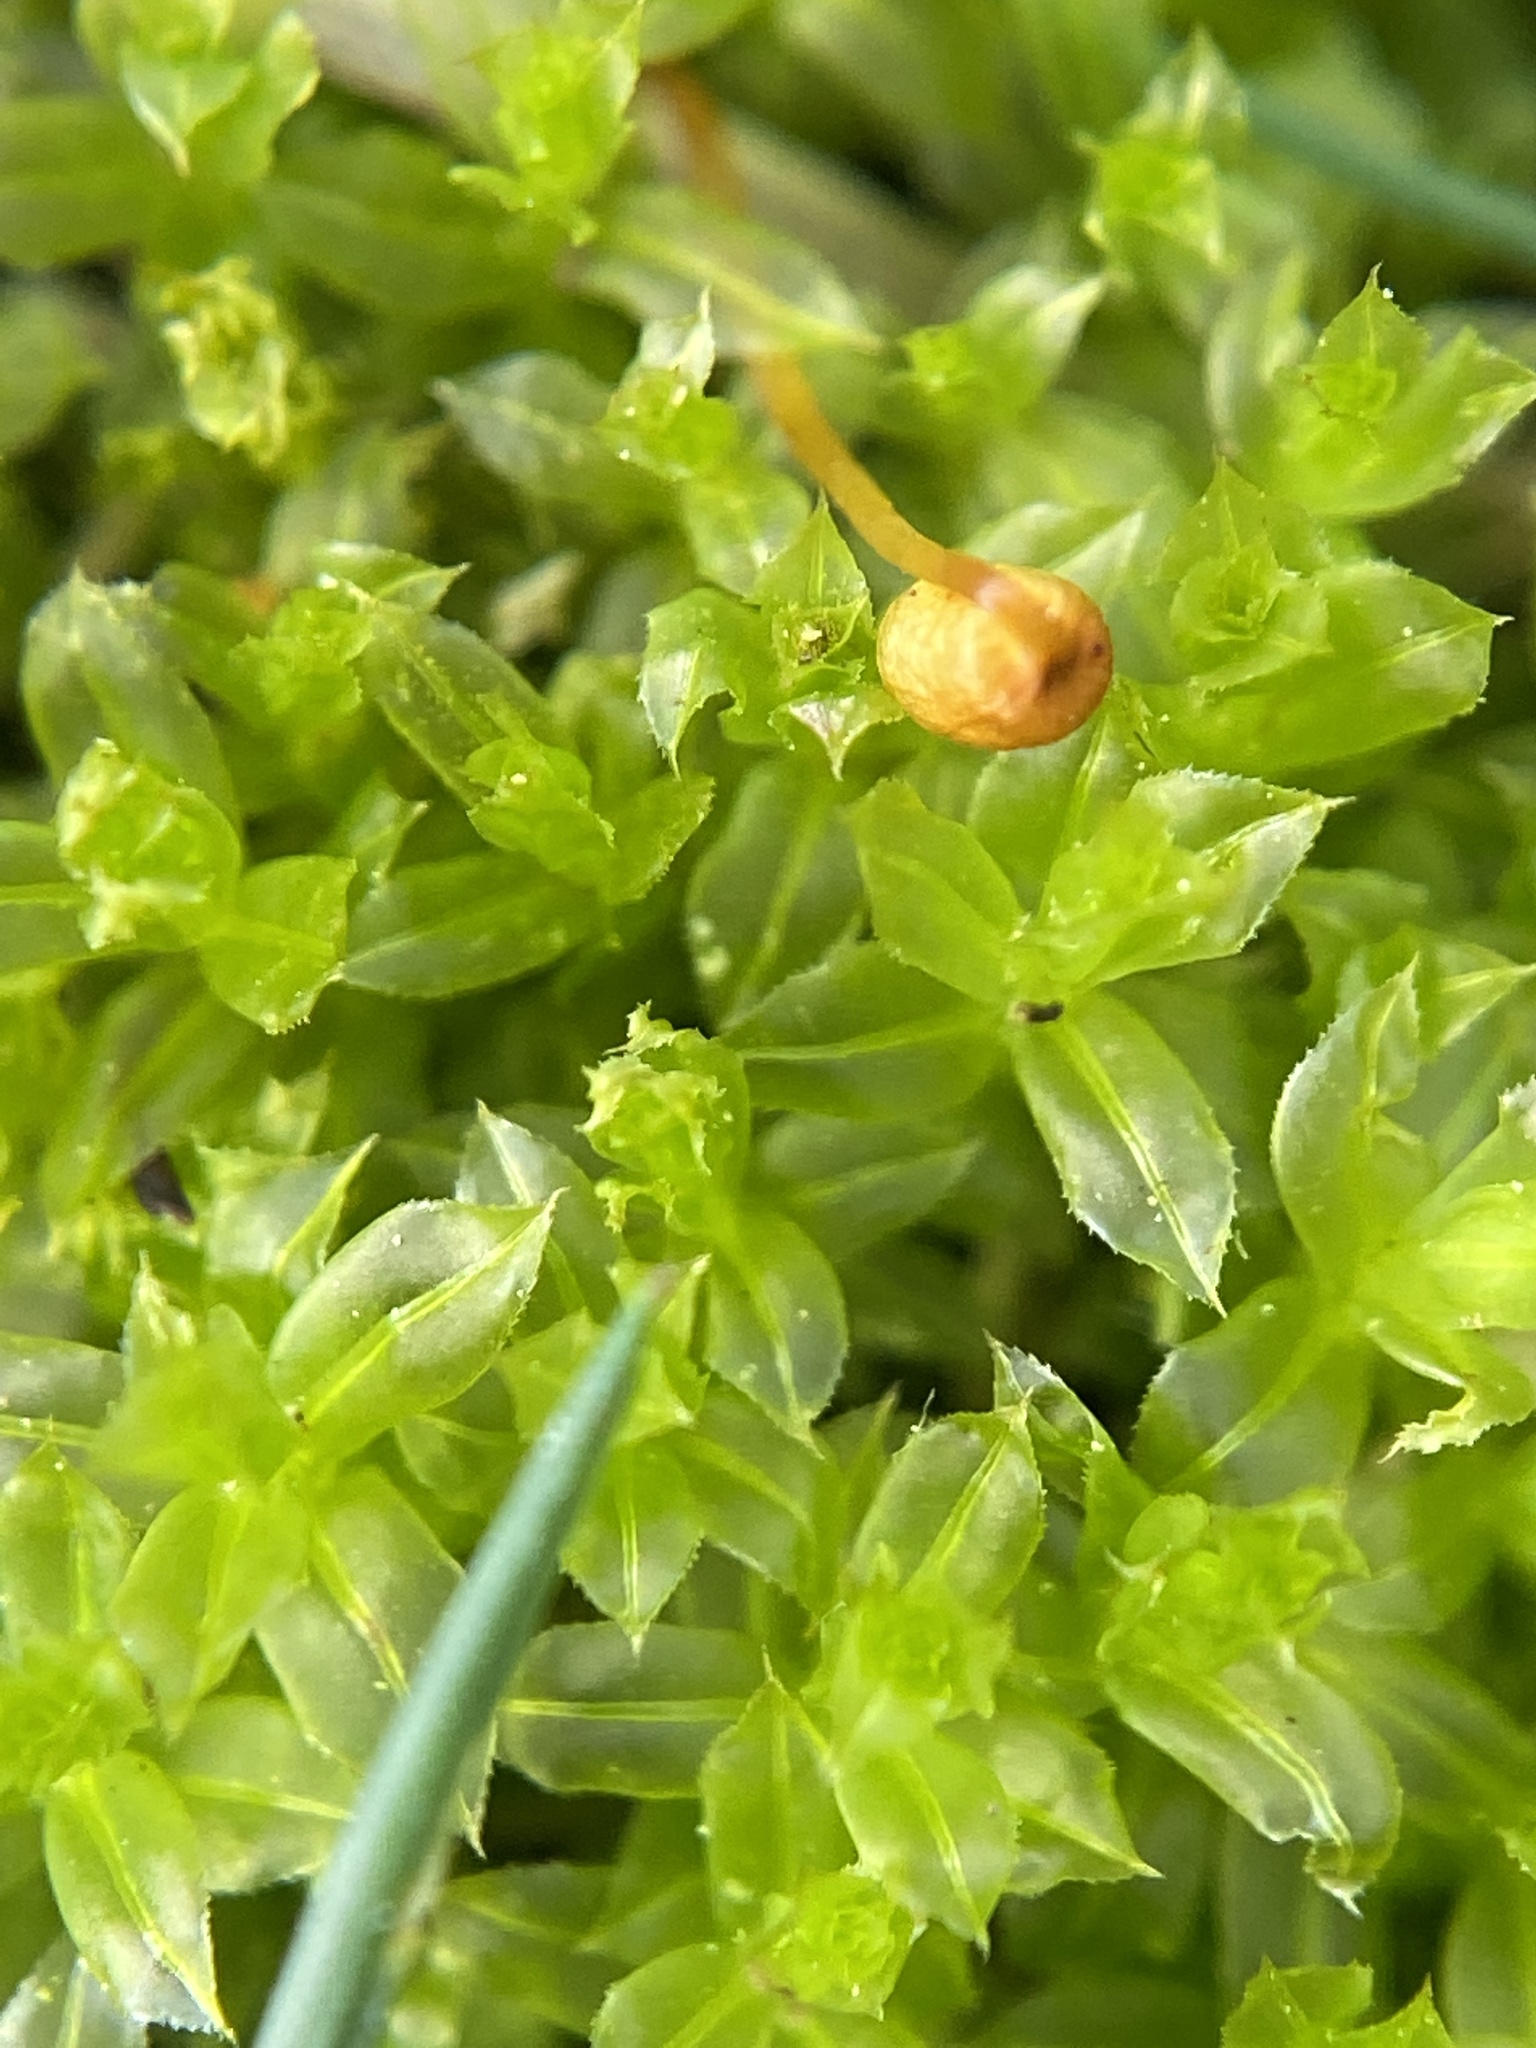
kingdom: Plantae
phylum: Bryophyta
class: Bryopsida
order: Bryales
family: Mniaceae
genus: Plagiomnium
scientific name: Plagiomnium cuspidatum
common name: Woodsy leafy moss
